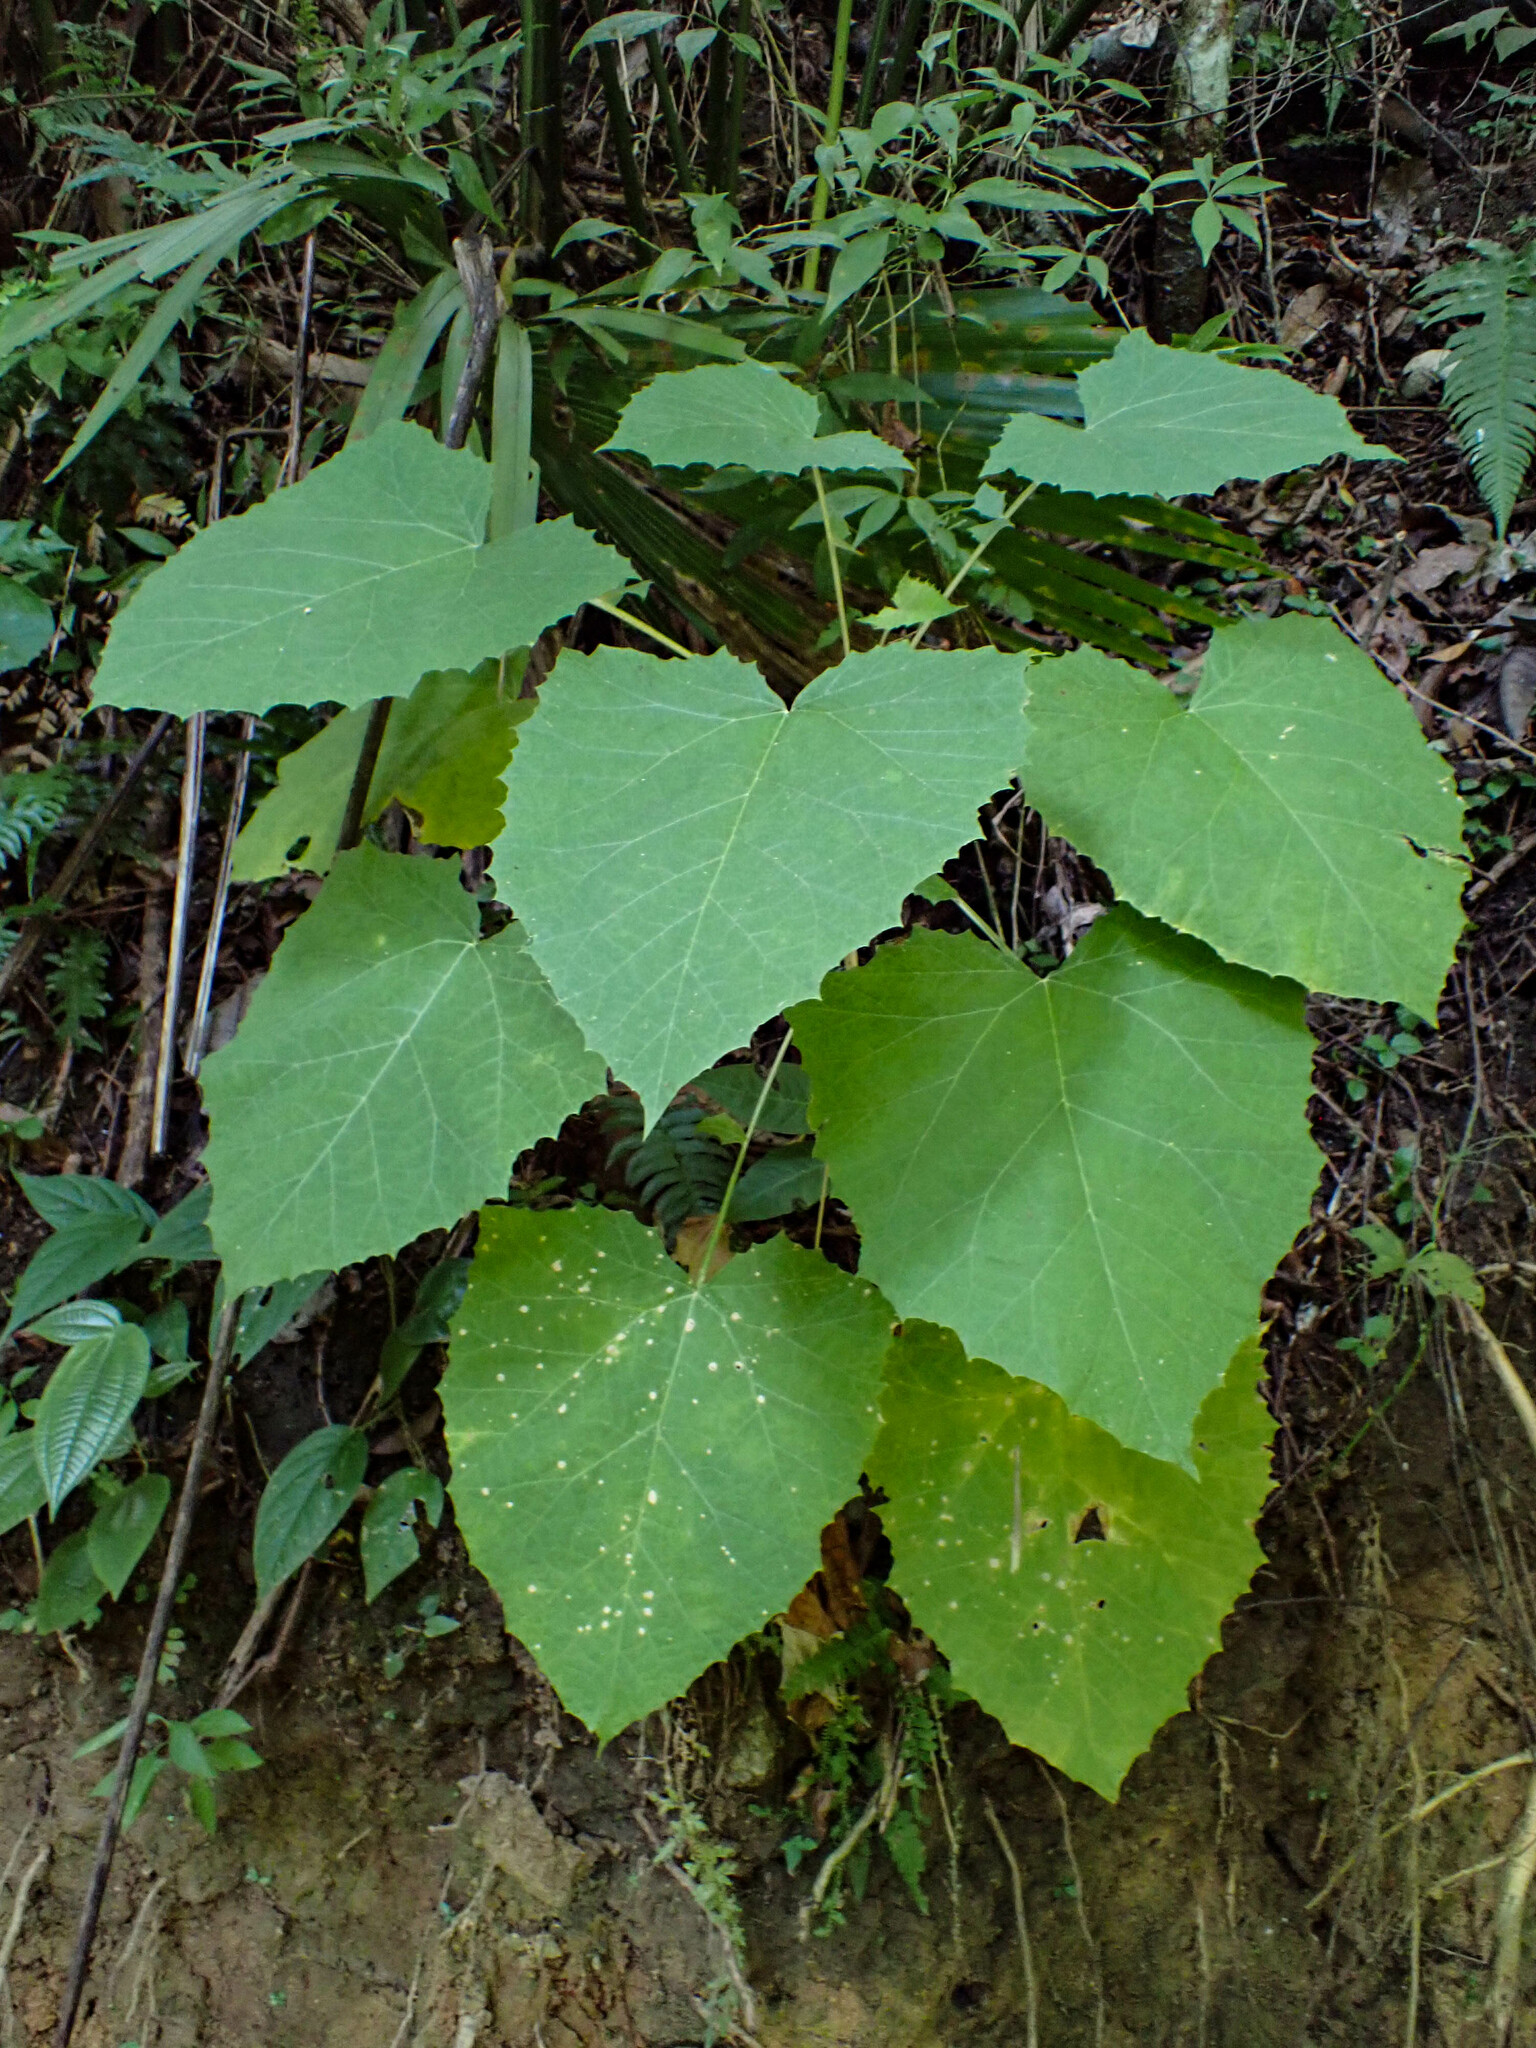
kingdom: Plantae
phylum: Tracheophyta
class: Magnoliopsida
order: Vitales
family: Vitaceae
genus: Vitis
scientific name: Vitis tiliifolia
